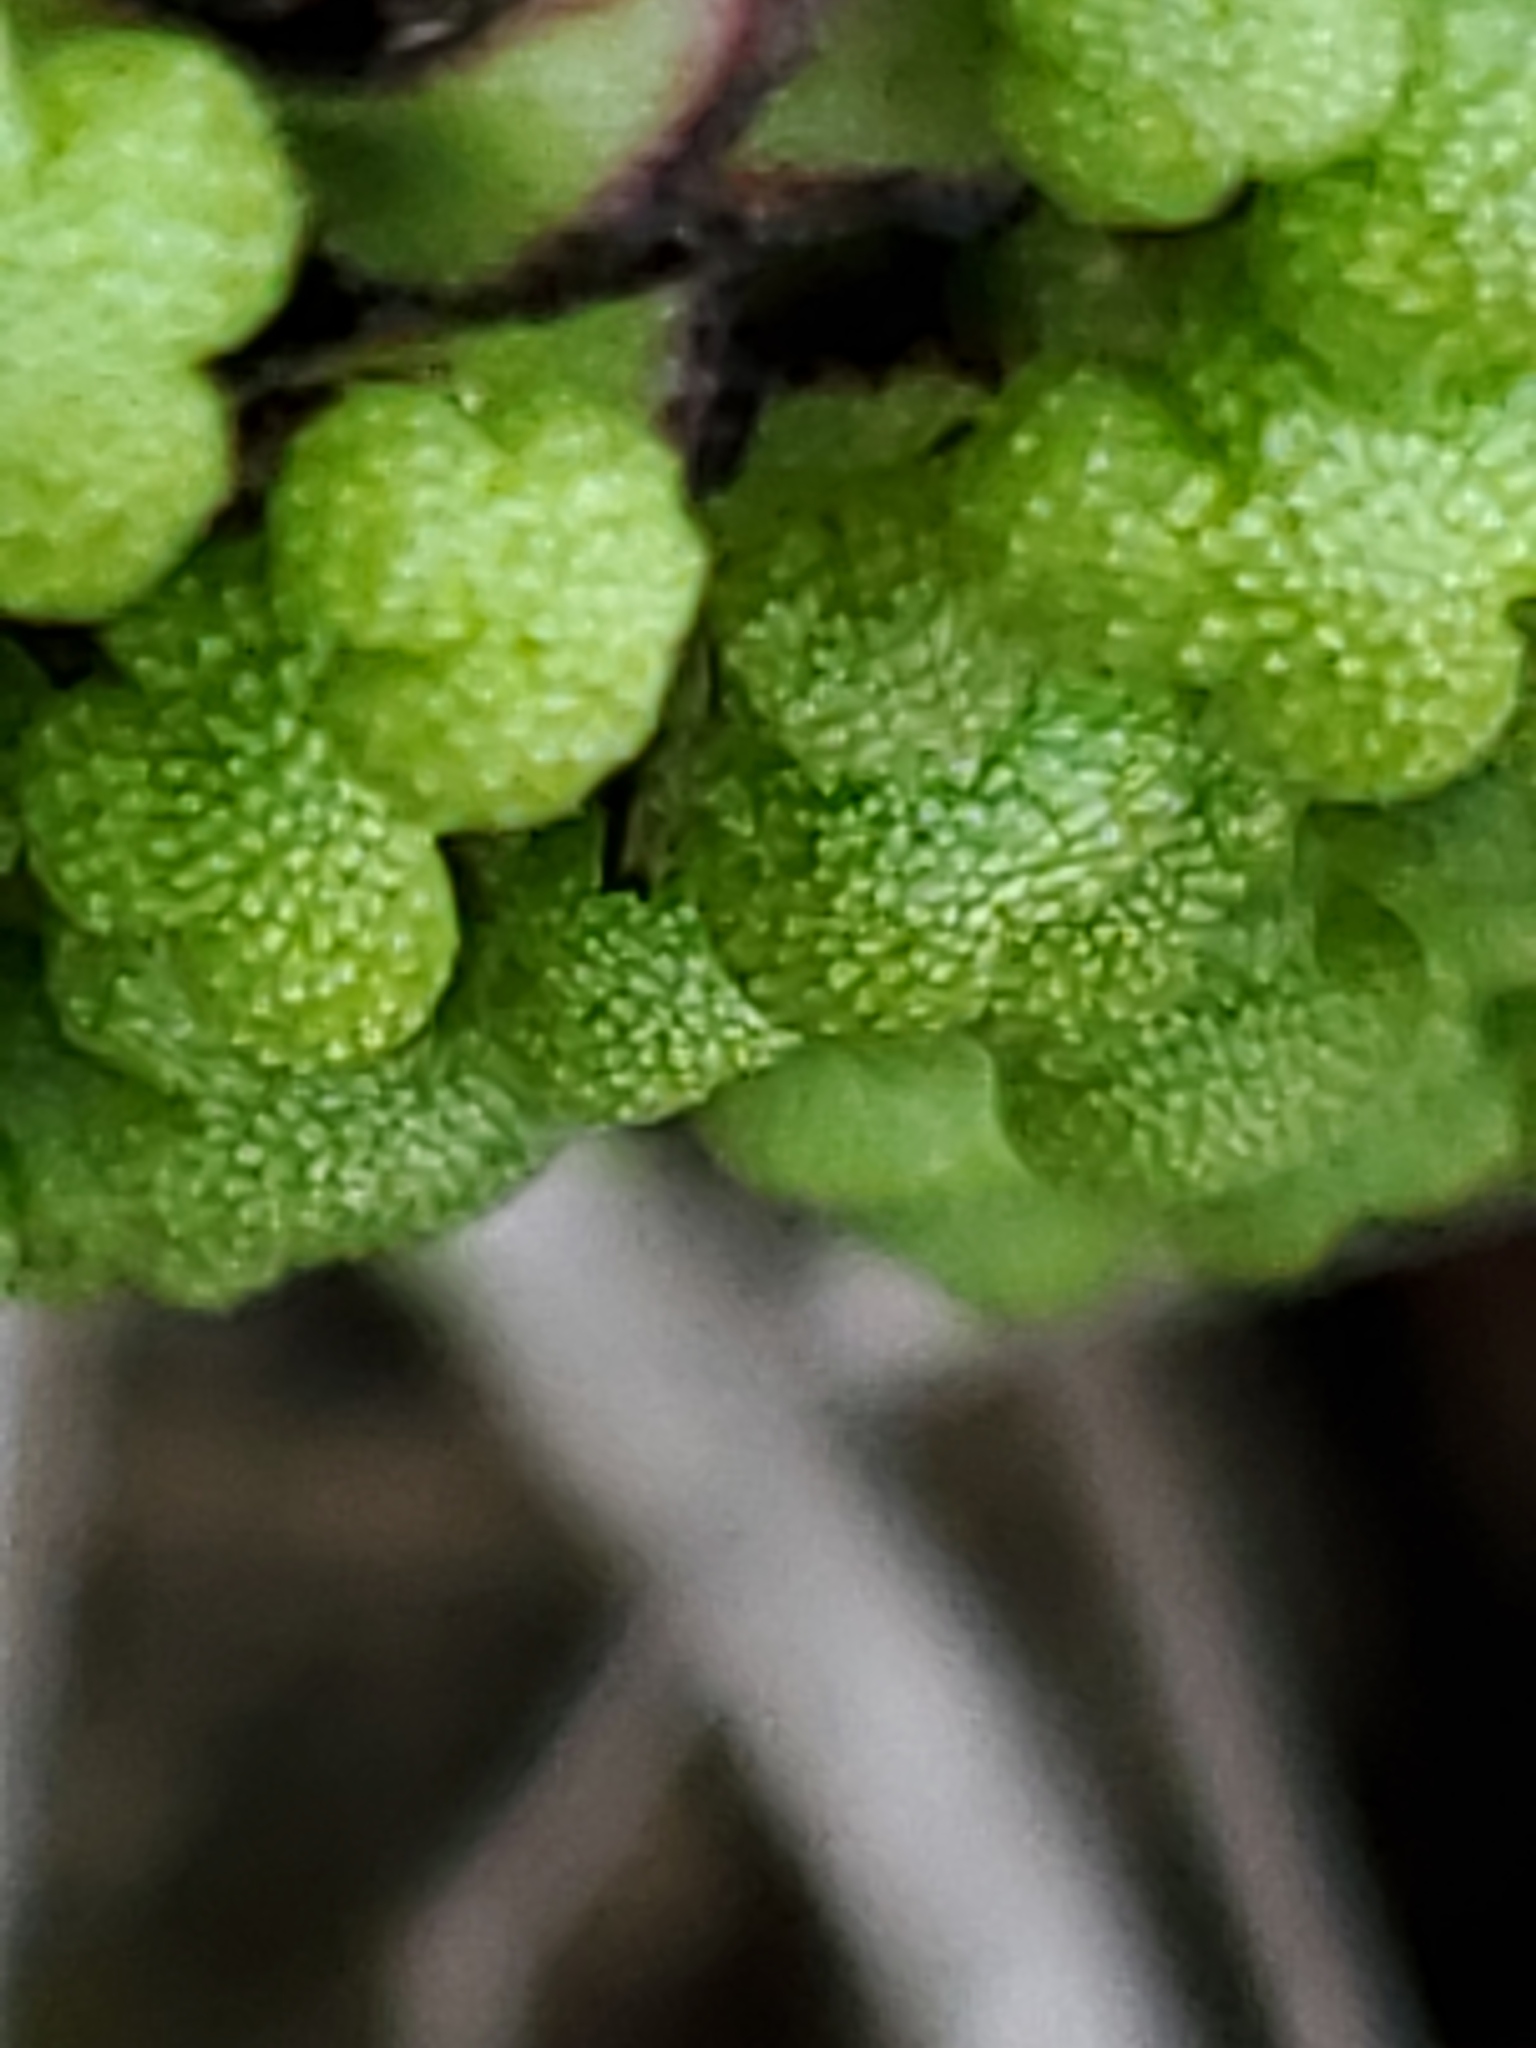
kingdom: Plantae
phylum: Marchantiophyta
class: Marchantiopsida
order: Marchantiales
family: Aytoniaceae
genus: Asterella
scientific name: Asterella californica
